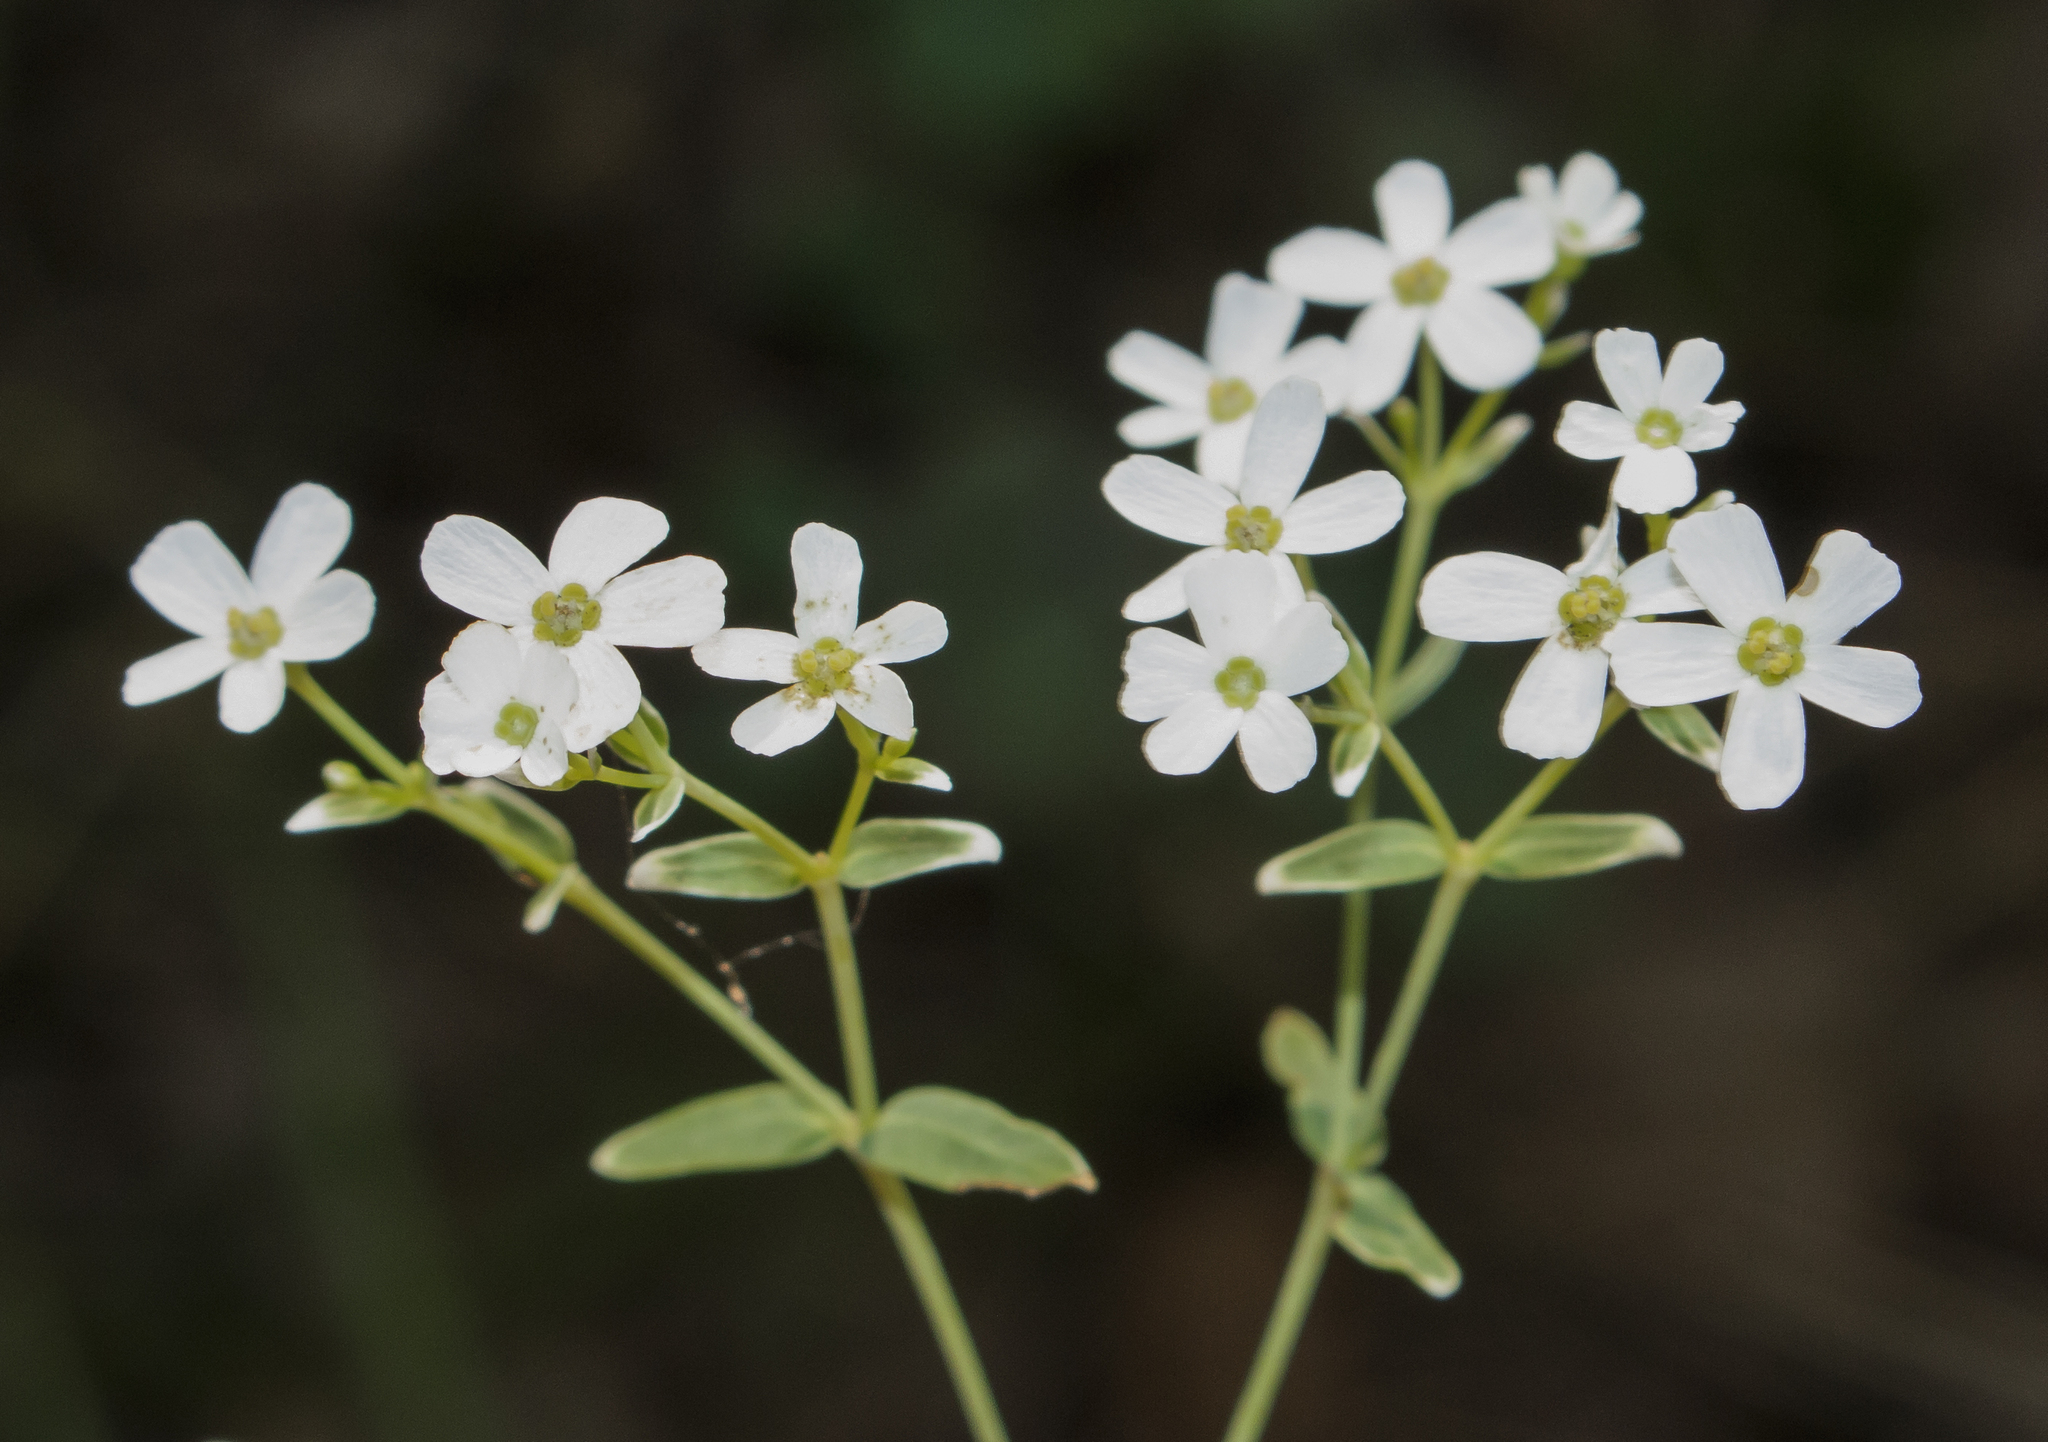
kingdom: Plantae
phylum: Tracheophyta
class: Magnoliopsida
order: Malpighiales
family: Euphorbiaceae
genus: Euphorbia
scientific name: Euphorbia corollata
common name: Flowering spurge
